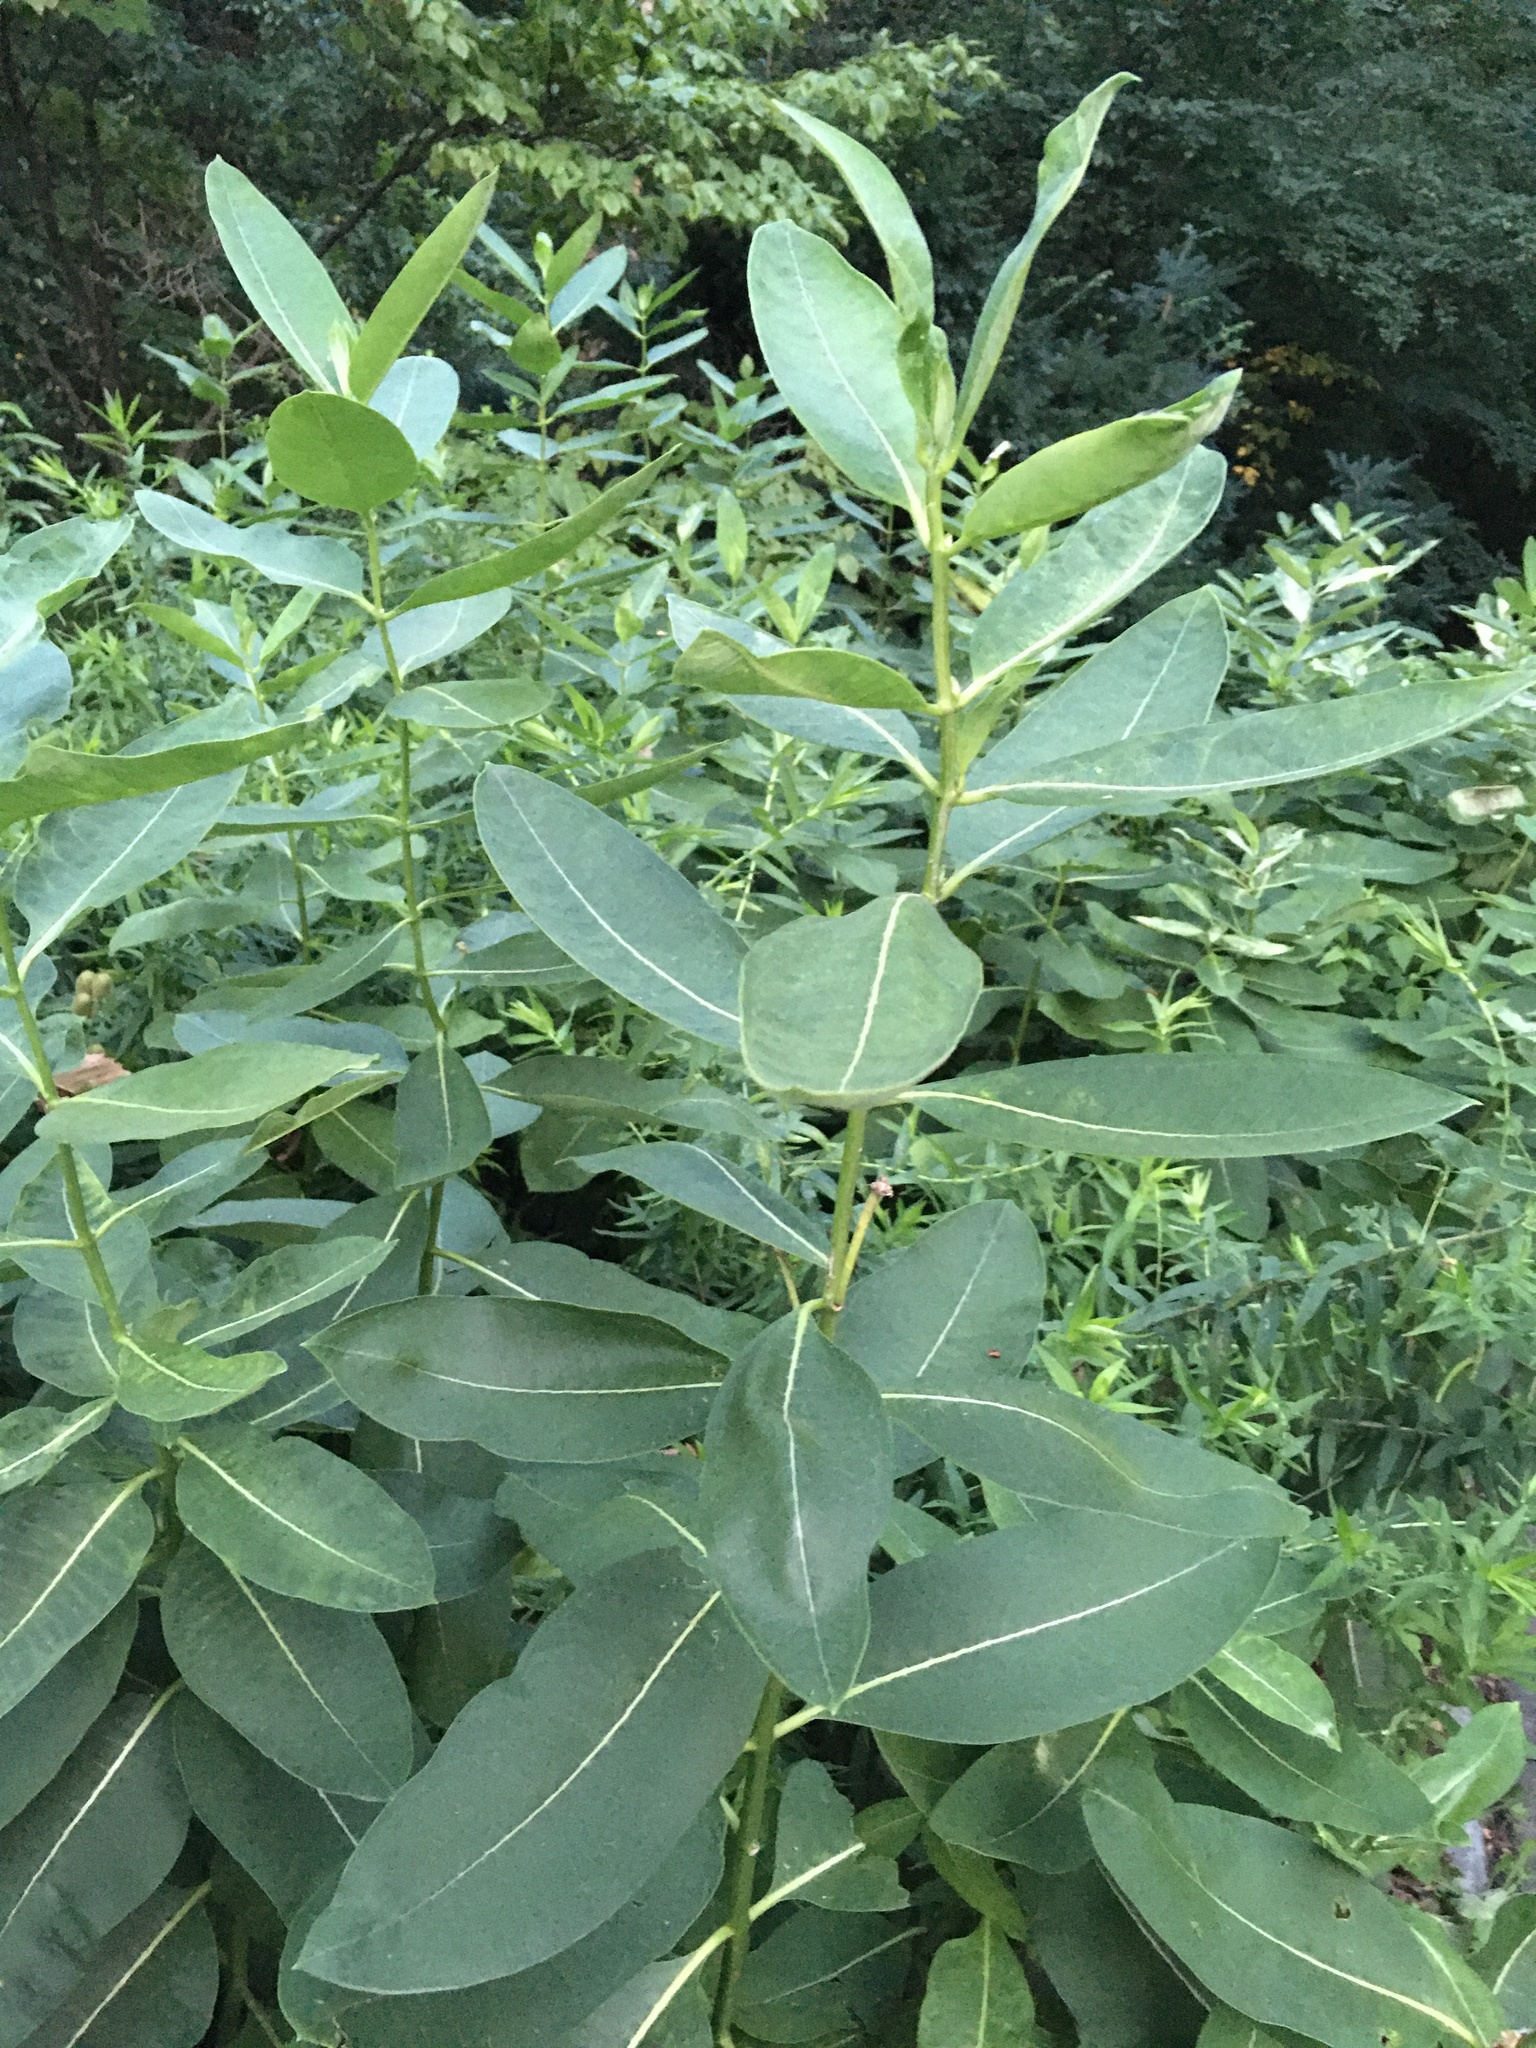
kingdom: Plantae
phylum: Tracheophyta
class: Magnoliopsida
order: Gentianales
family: Apocynaceae
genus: Asclepias
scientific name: Asclepias syriaca
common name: Common milkweed
